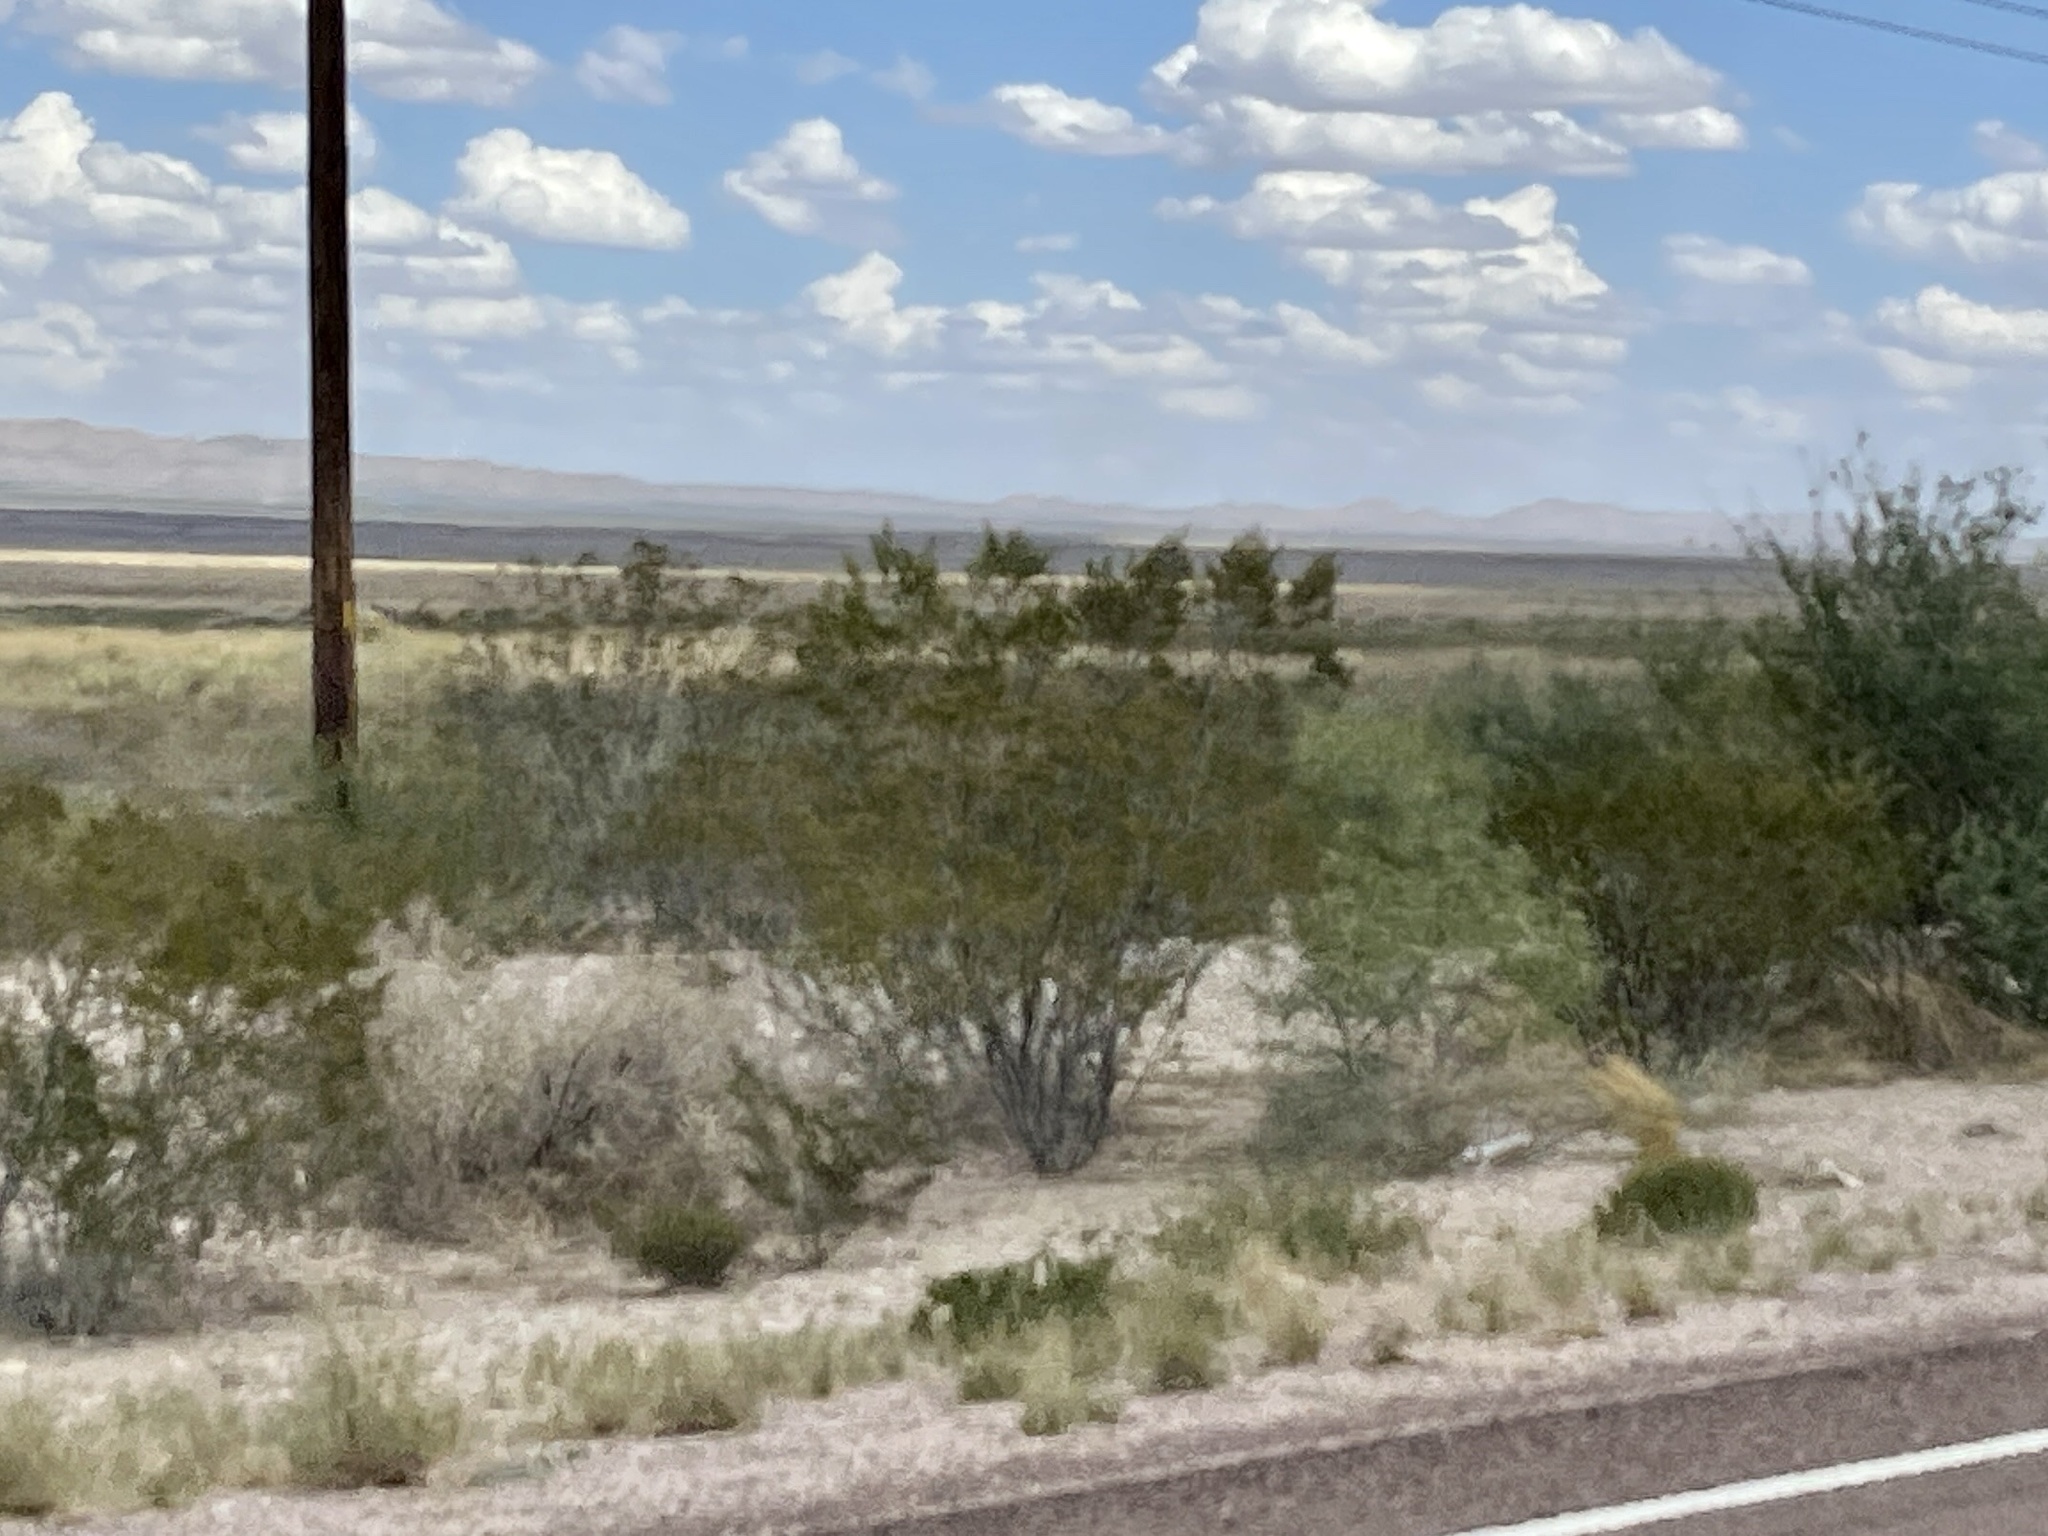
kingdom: Plantae
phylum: Tracheophyta
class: Magnoliopsida
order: Zygophyllales
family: Zygophyllaceae
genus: Larrea
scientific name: Larrea tridentata
